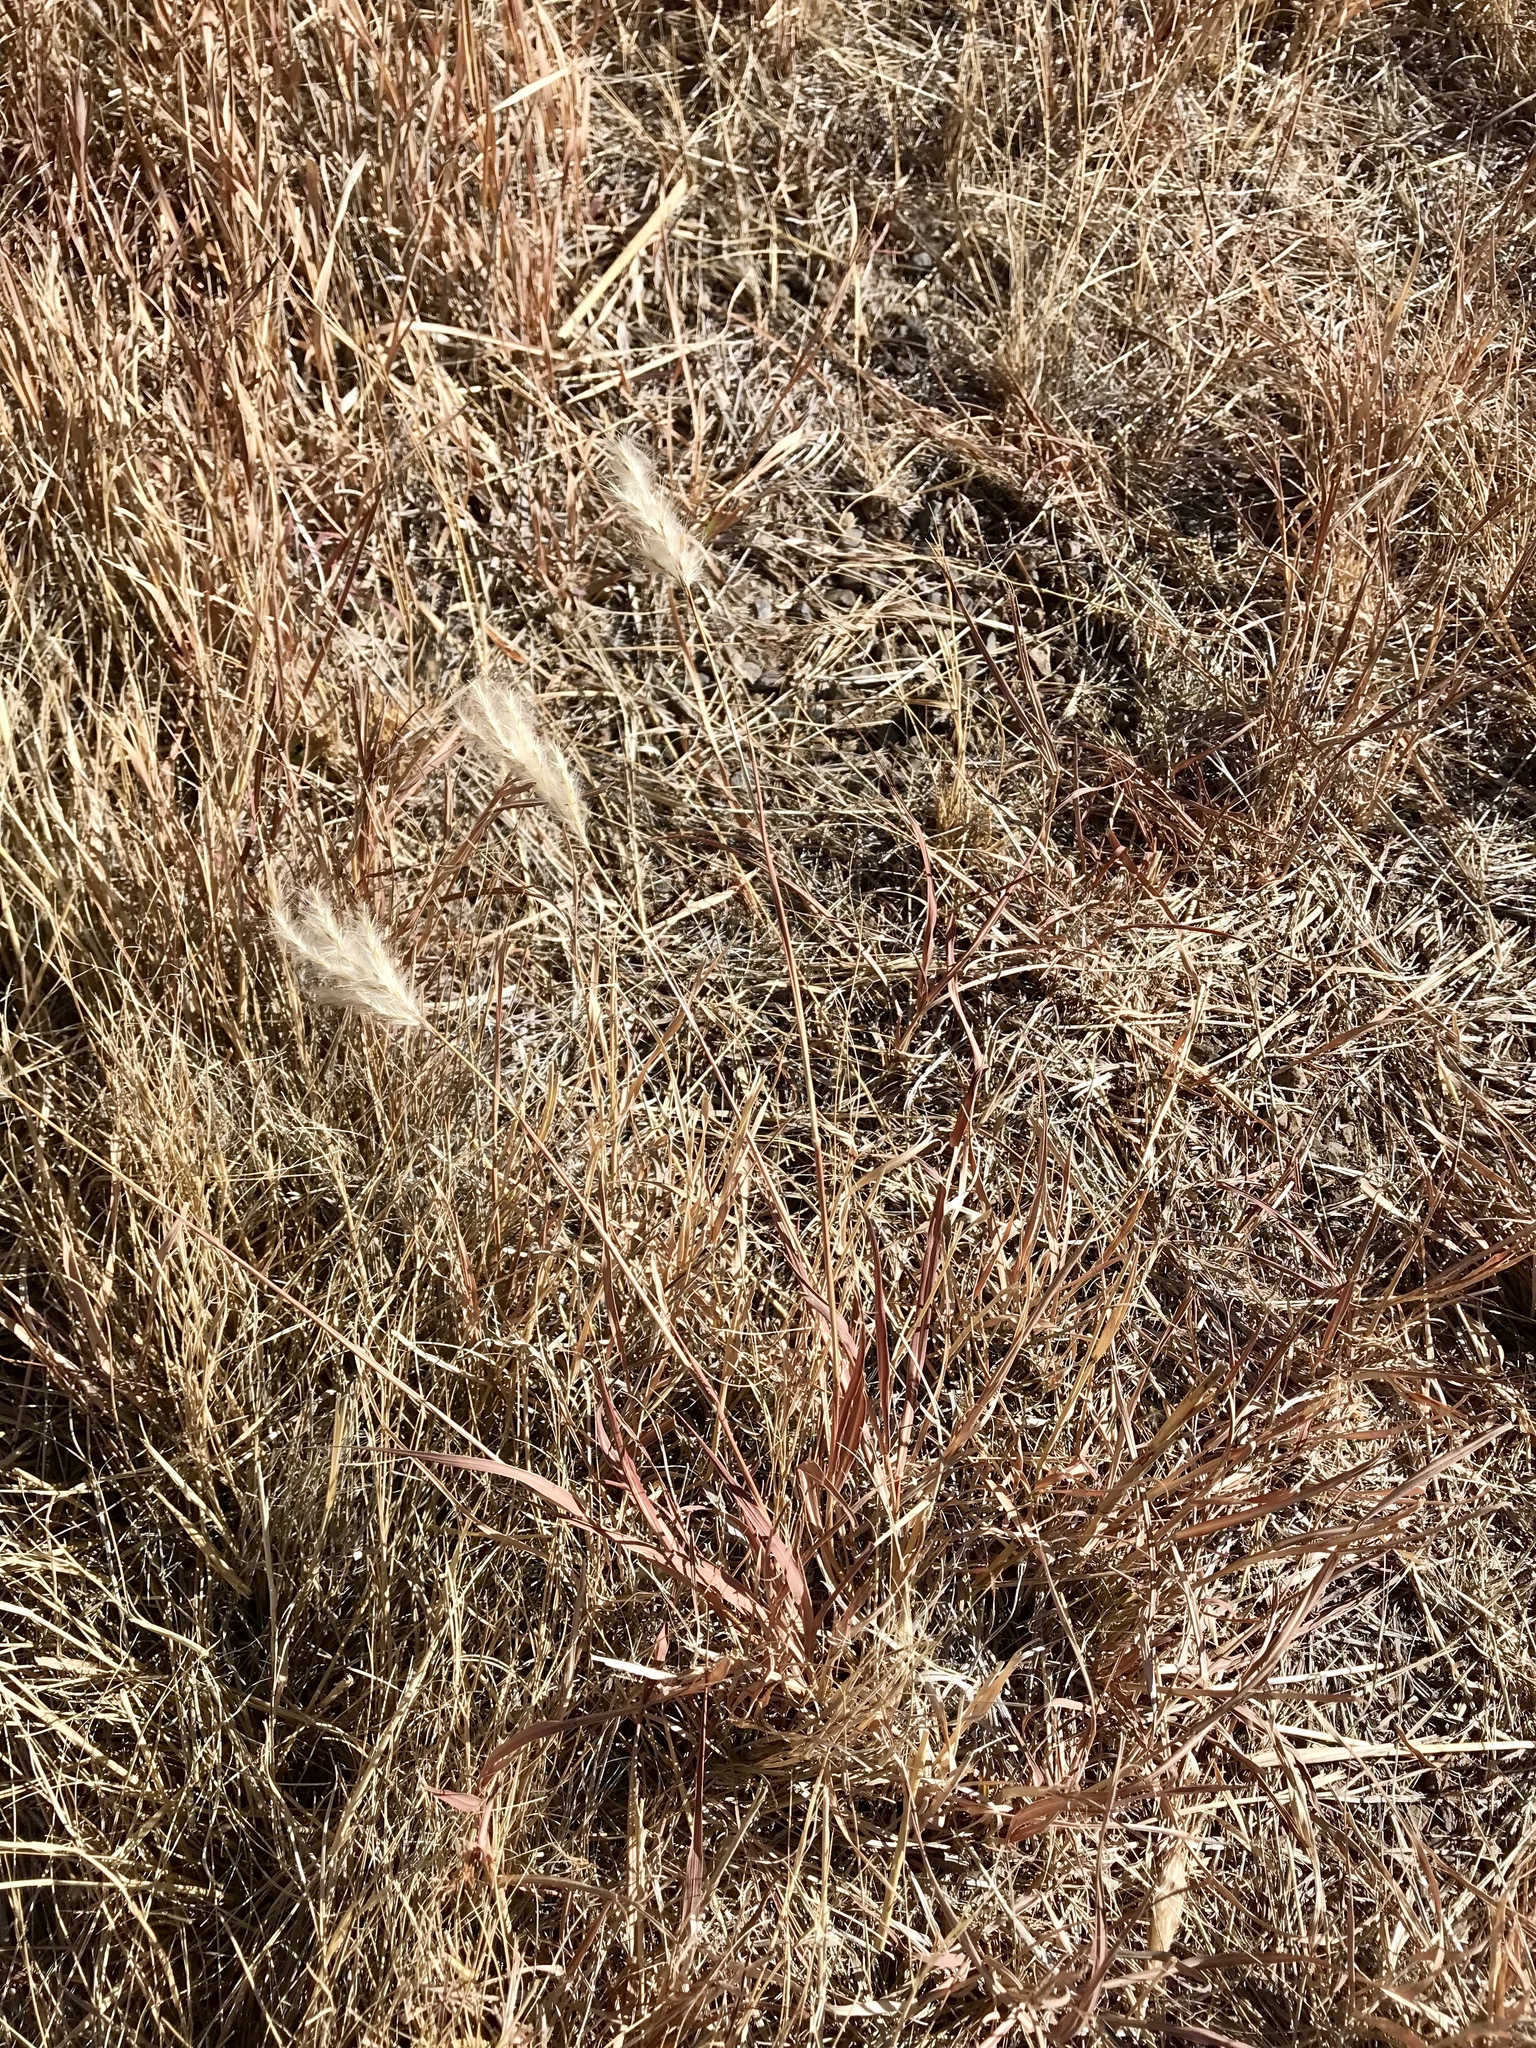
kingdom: Plantae
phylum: Tracheophyta
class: Liliopsida
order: Poales
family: Poaceae
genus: Bothriochloa
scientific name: Bothriochloa barbinodis
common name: Cane bluestem
